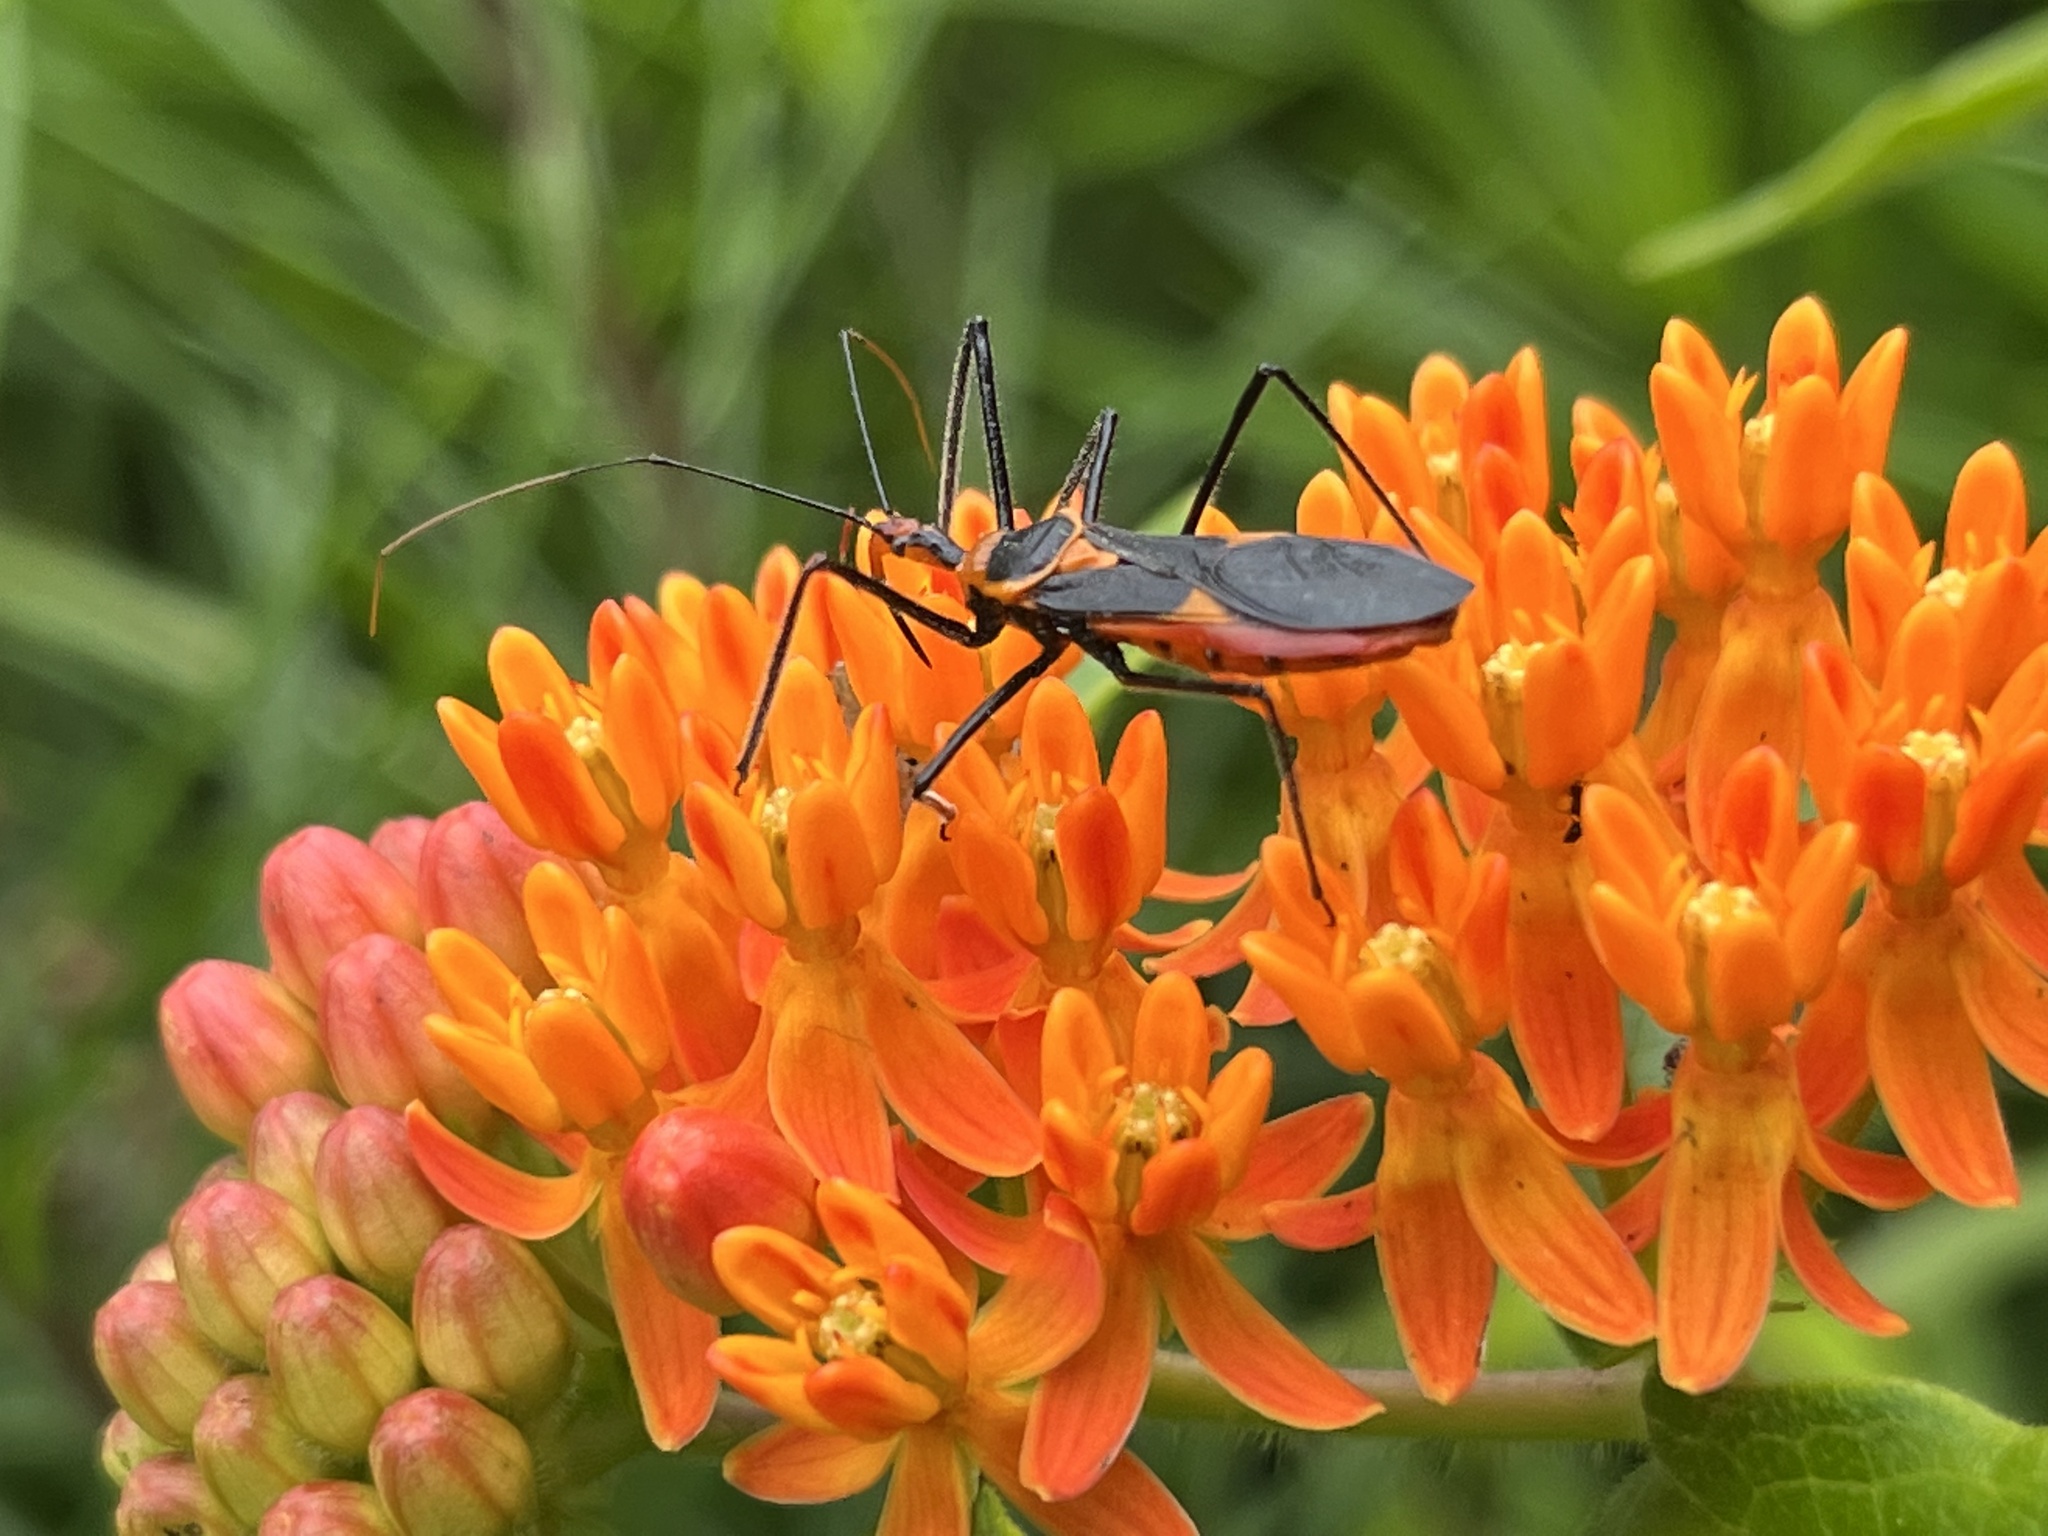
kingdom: Animalia
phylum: Arthropoda
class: Insecta
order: Hemiptera
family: Reduviidae
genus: Zelus
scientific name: Zelus longipes
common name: Milkweed assassin bug
